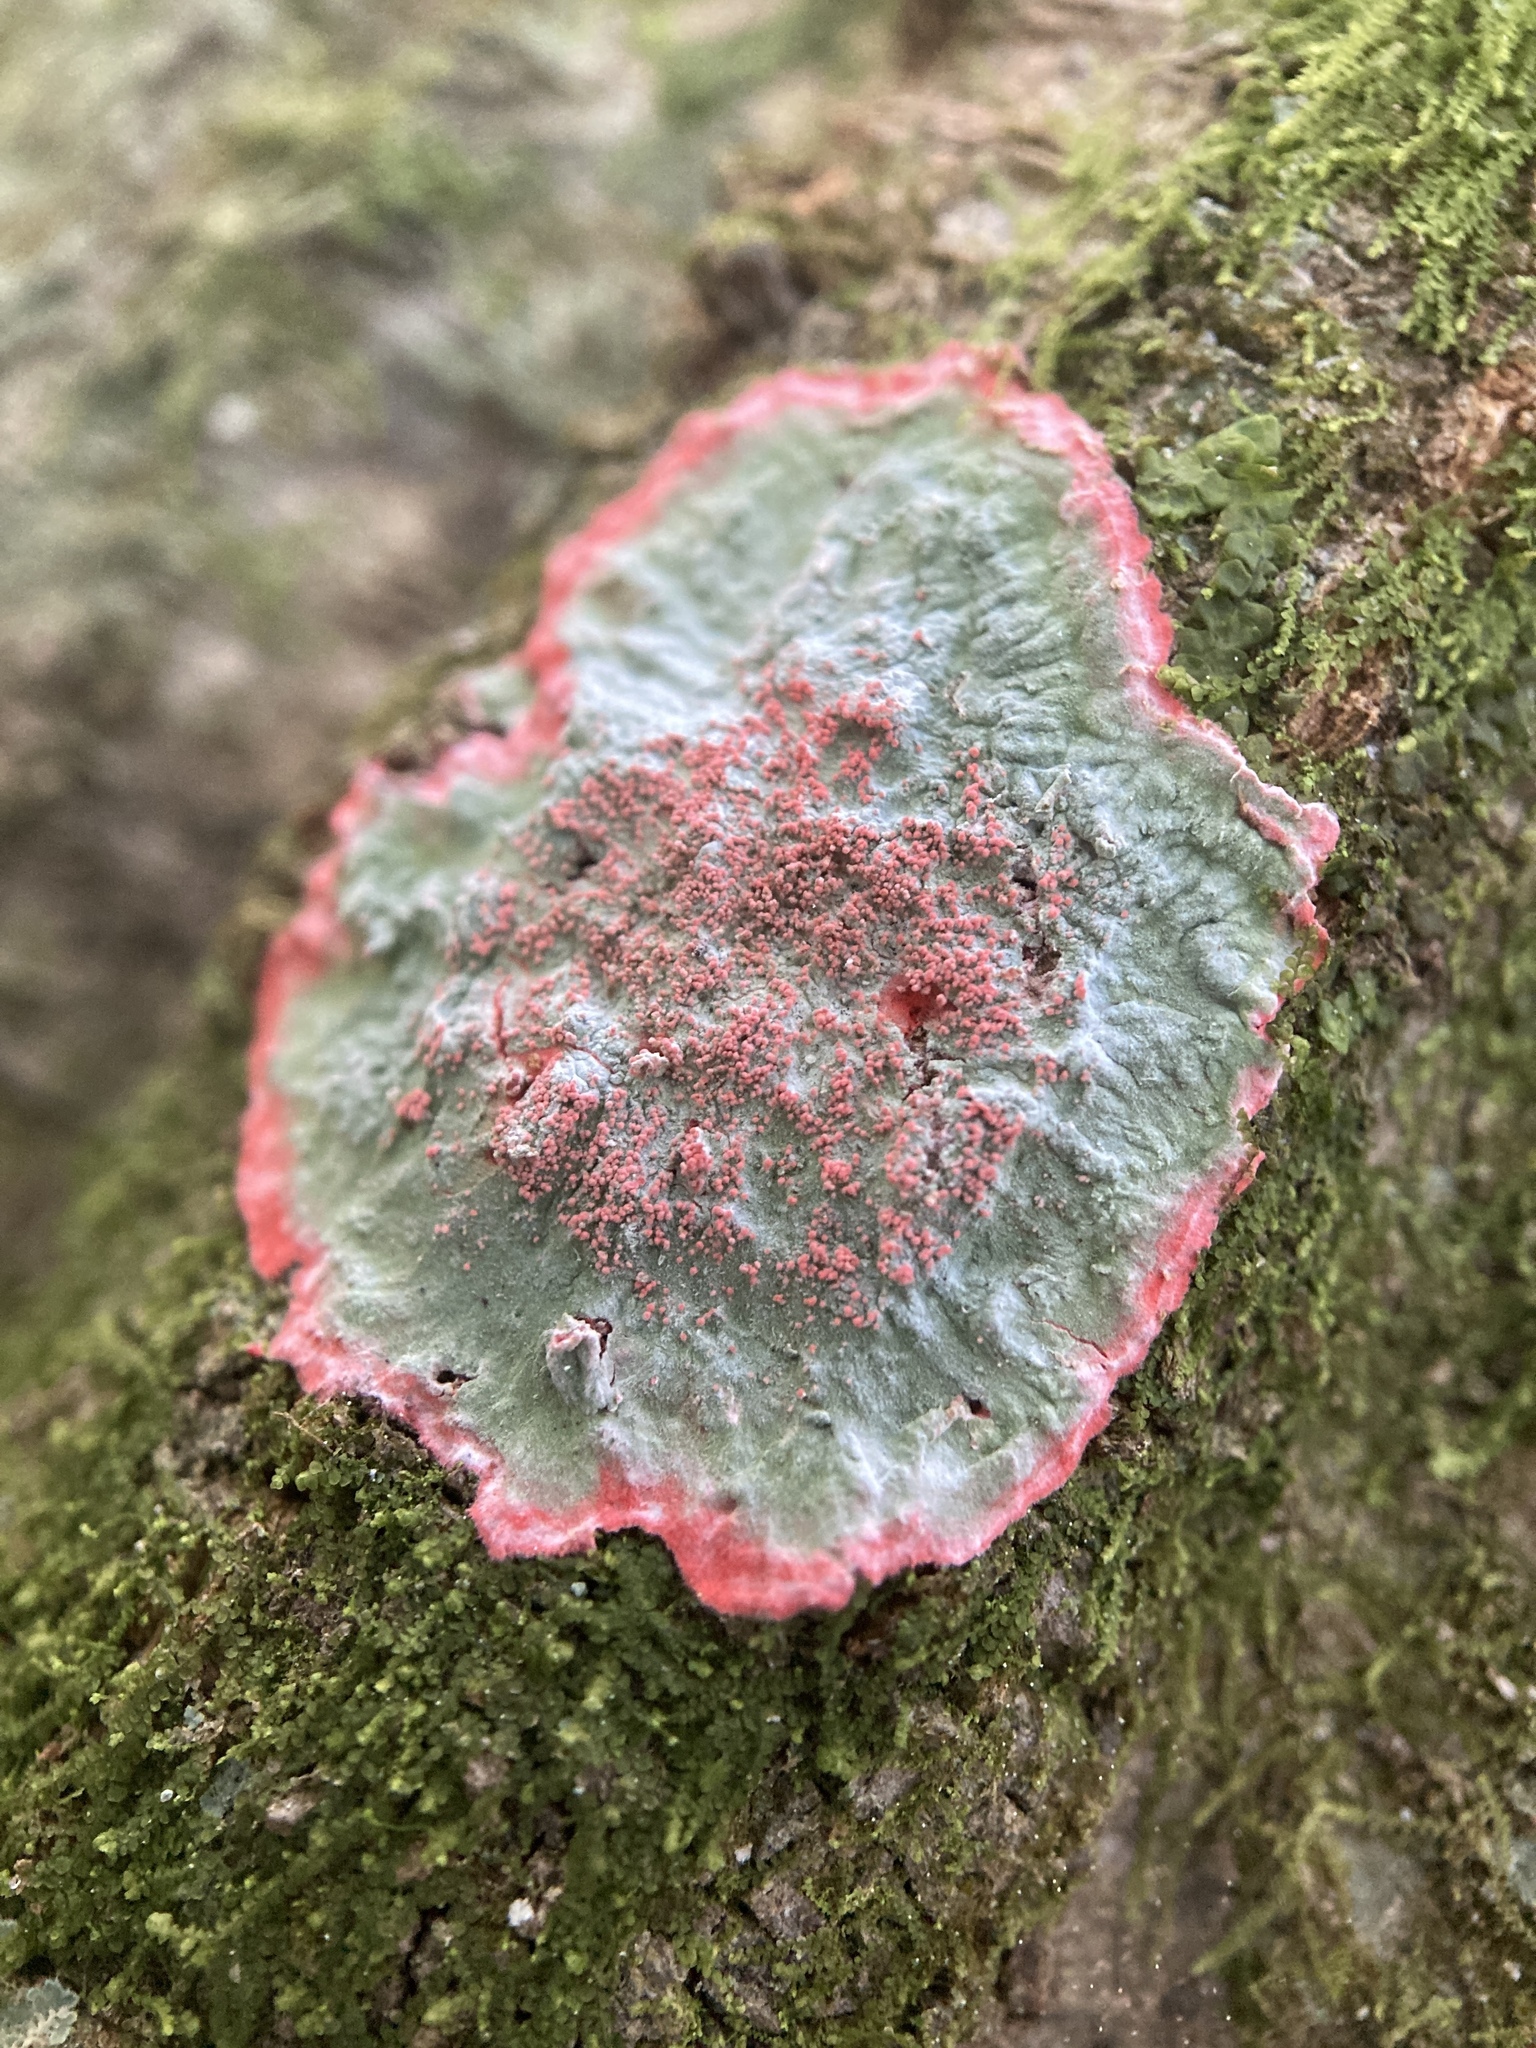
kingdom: Fungi
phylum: Ascomycota
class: Arthoniomycetes
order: Arthoniales
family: Arthoniaceae
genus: Herpothallon
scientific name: Herpothallon rubrocinctum
